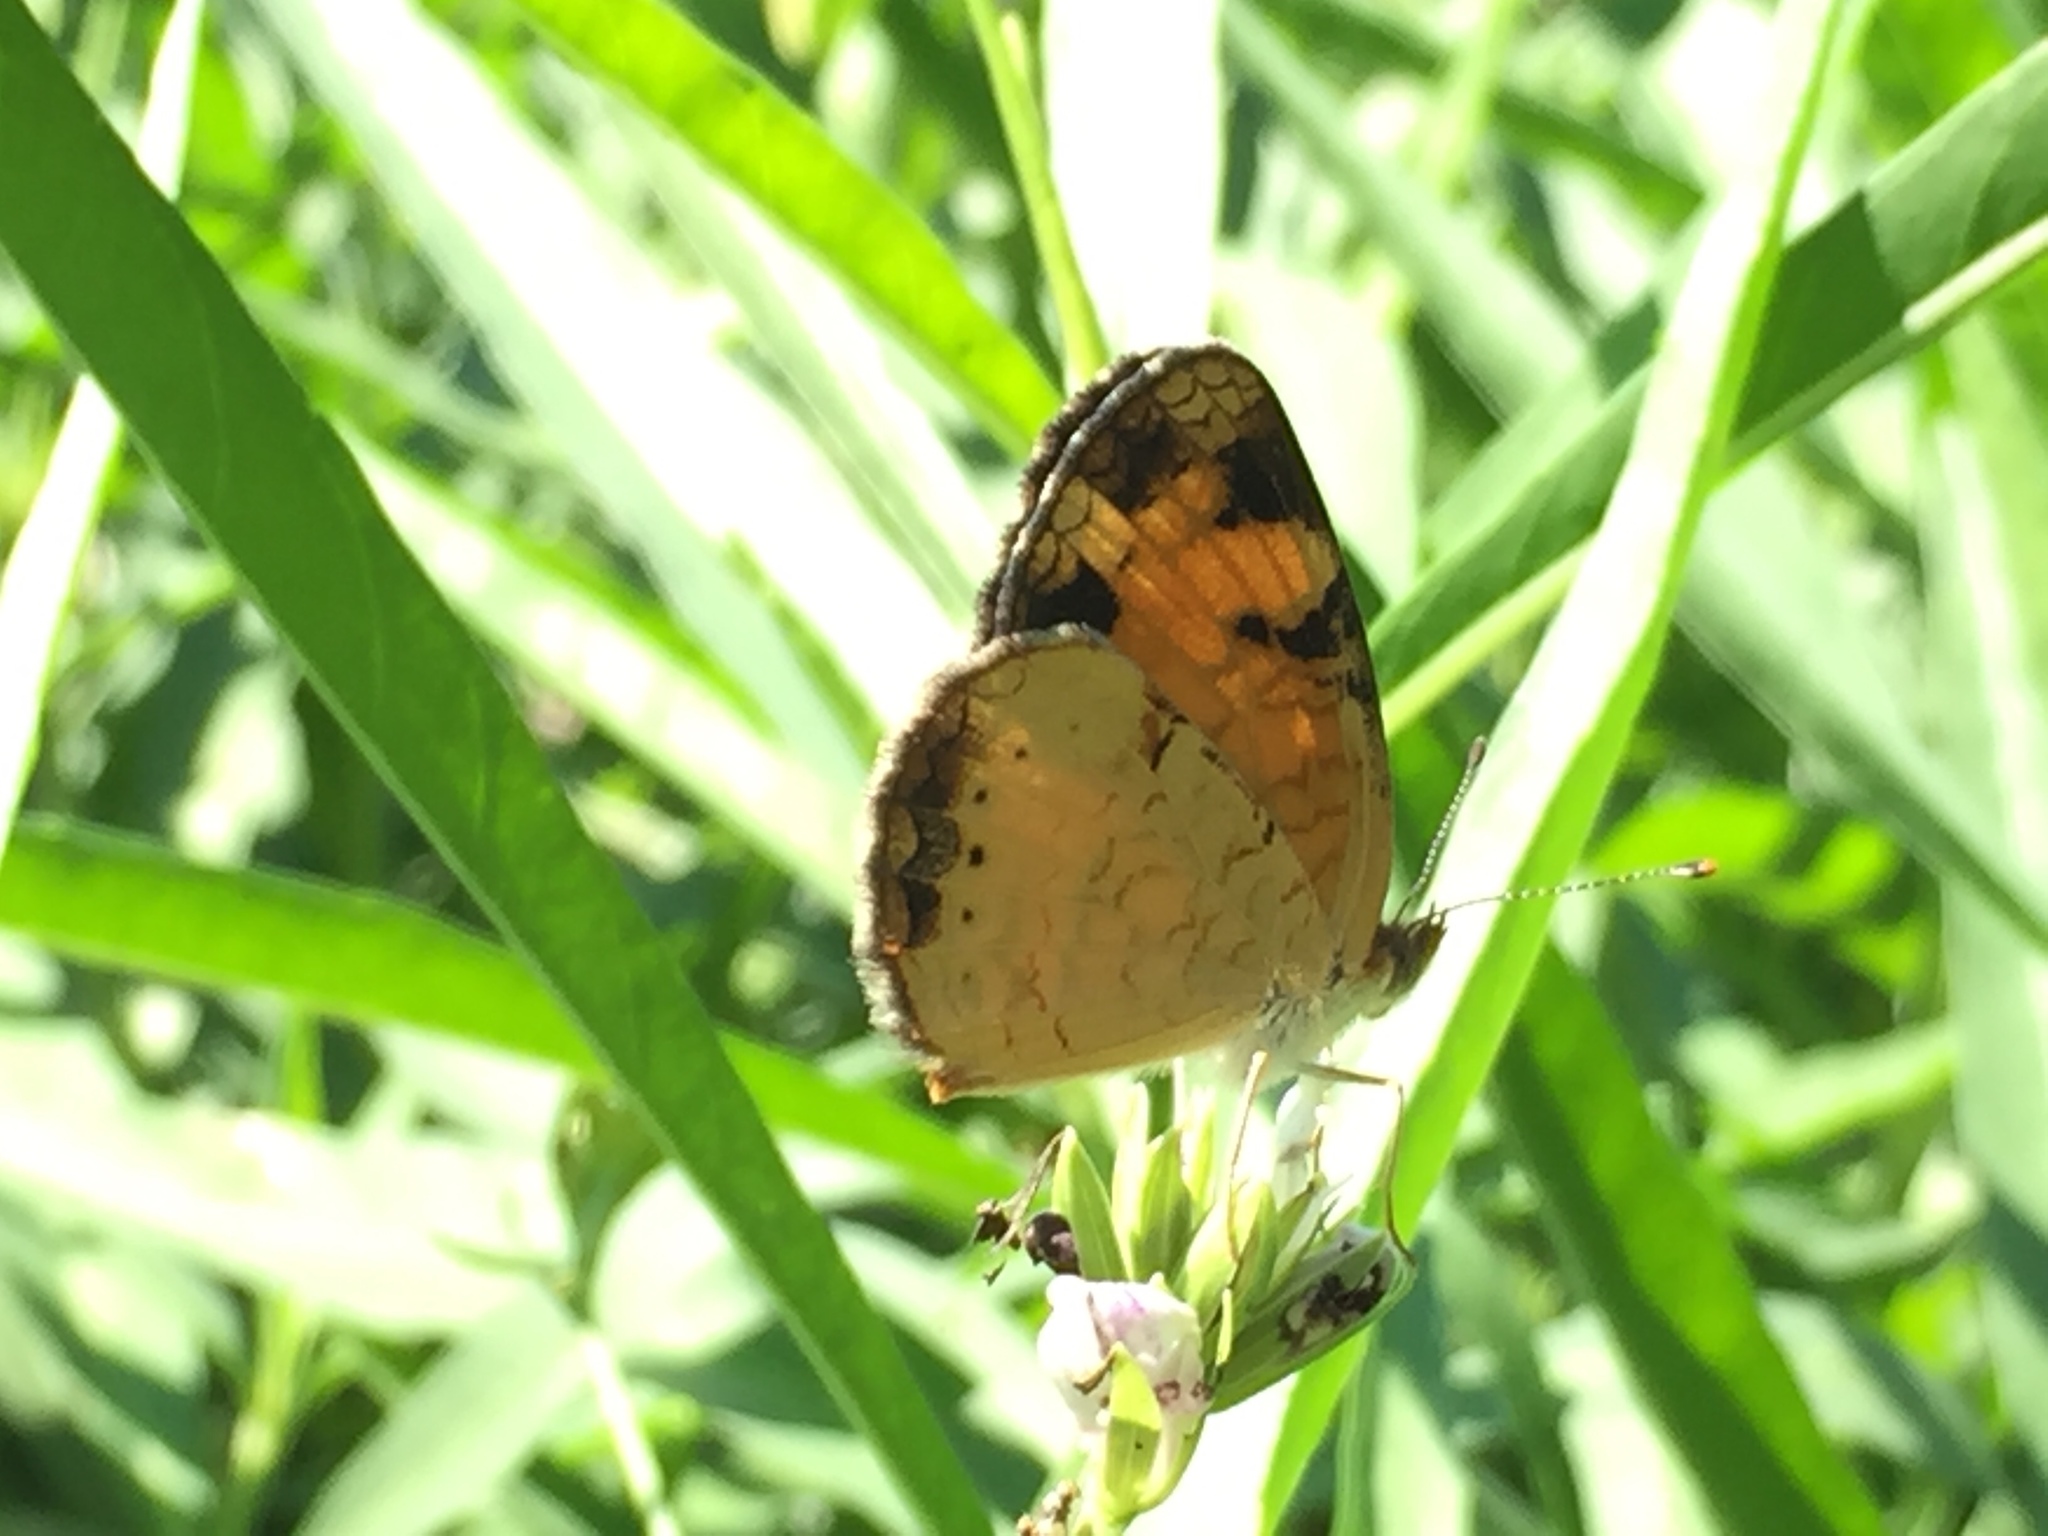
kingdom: Animalia
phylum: Arthropoda
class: Insecta
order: Lepidoptera
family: Nymphalidae
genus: Phyciodes
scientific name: Phyciodes tharos
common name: Pearl crescent
